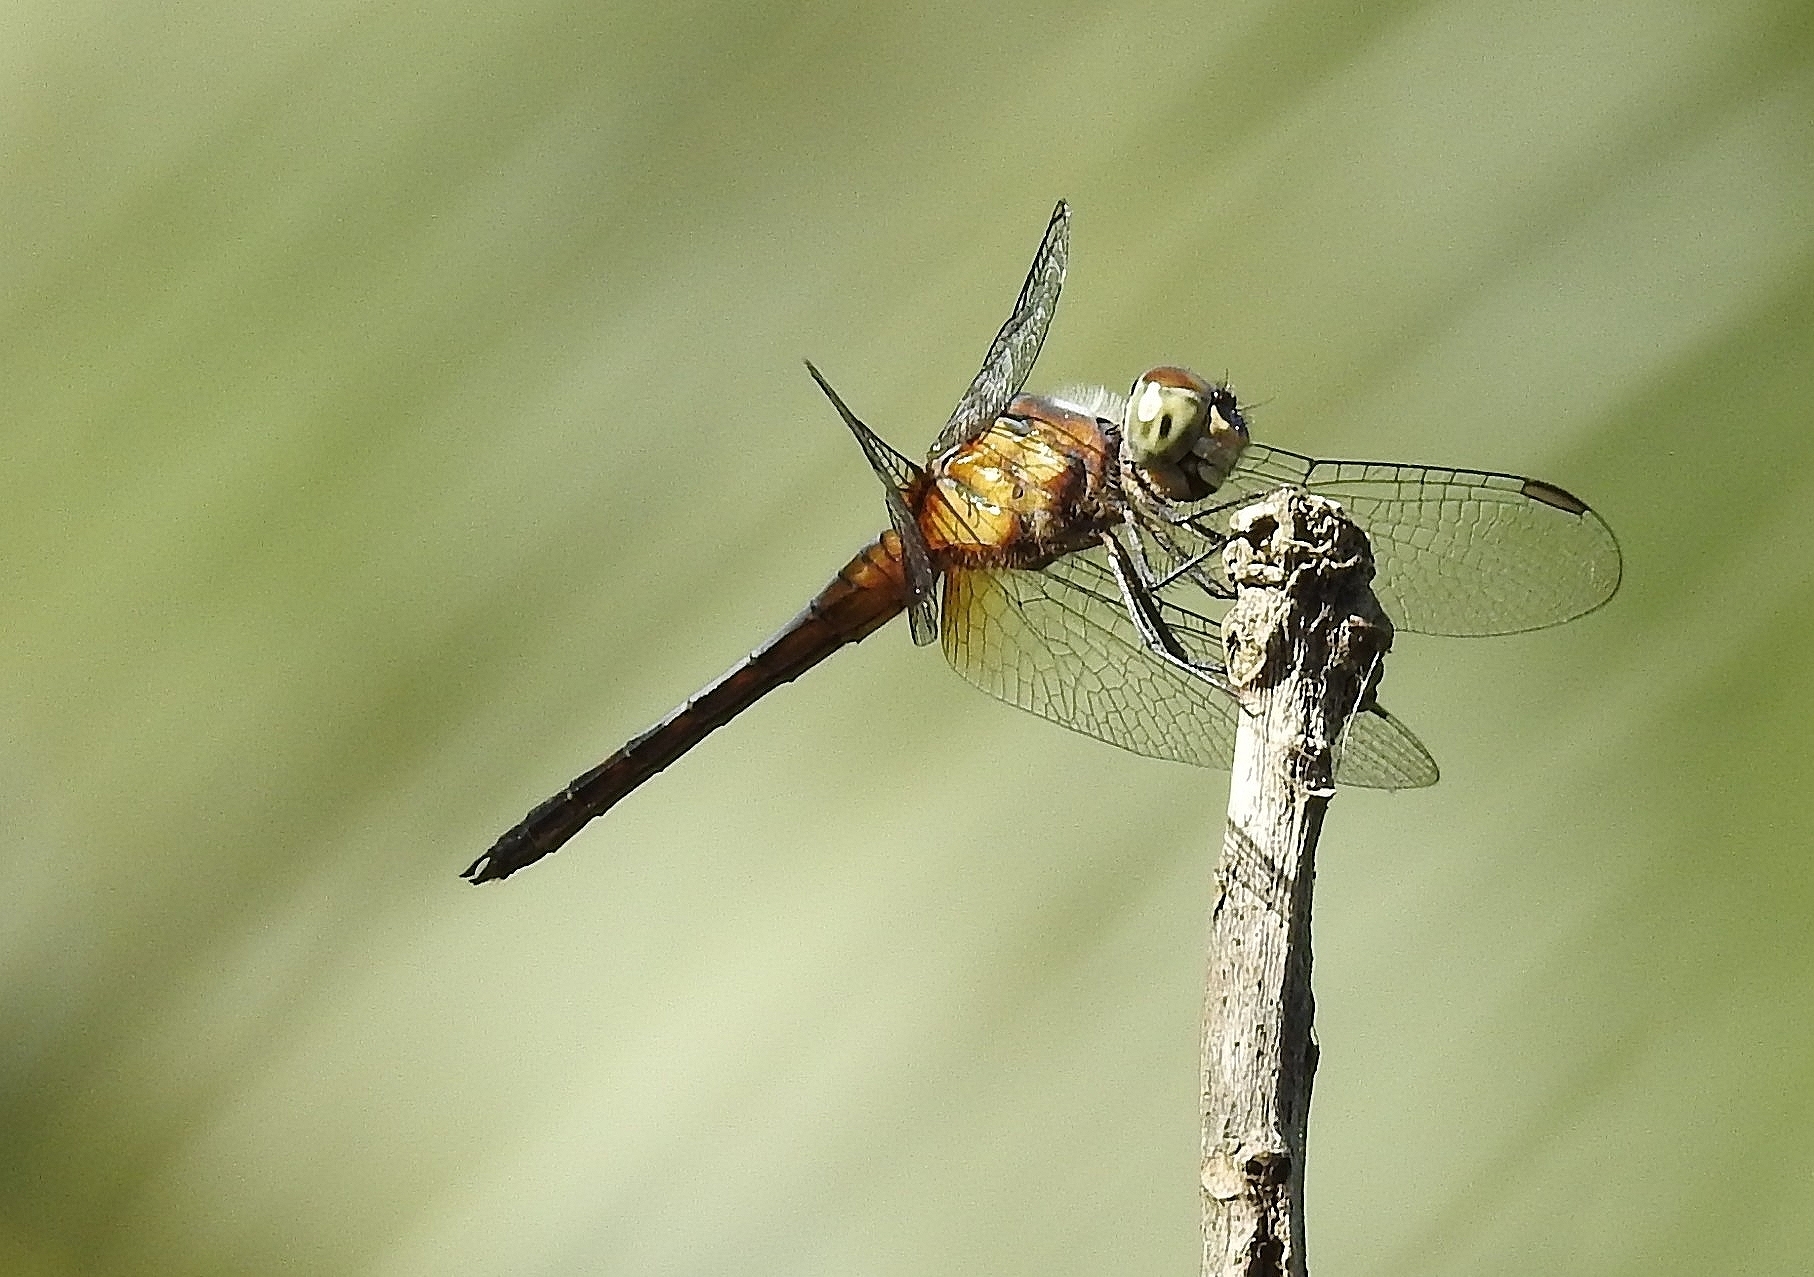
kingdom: Animalia
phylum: Arthropoda
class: Insecta
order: Odonata
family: Libellulidae
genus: Brachydiplax
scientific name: Brachydiplax chalybea
